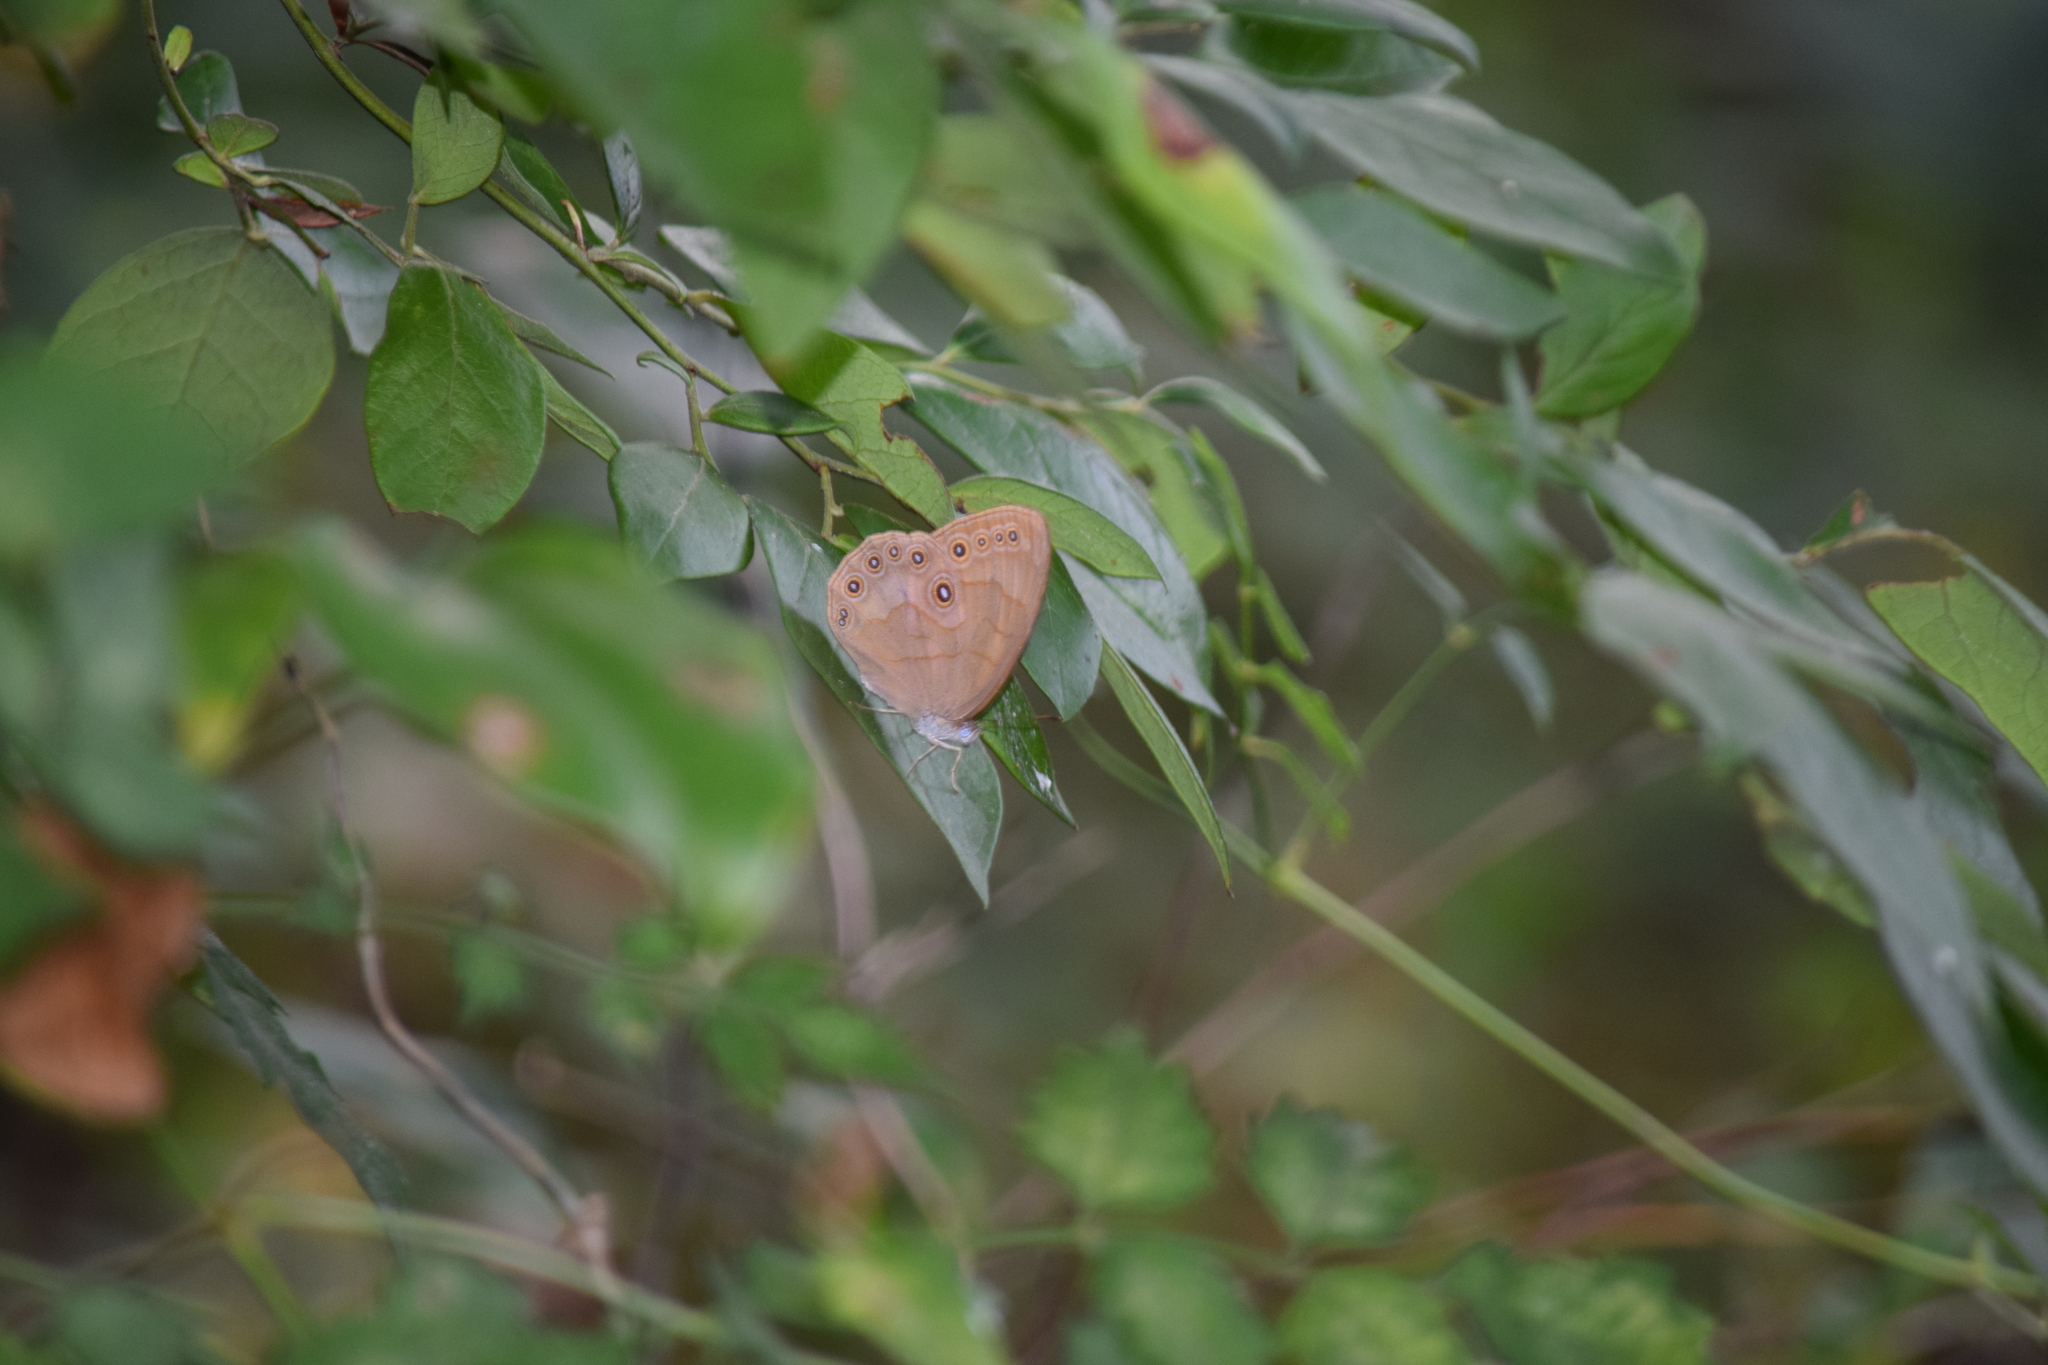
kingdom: Animalia
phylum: Arthropoda
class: Insecta
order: Lepidoptera
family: Nymphalidae
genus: Lethe
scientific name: Lethe eurydice
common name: Eyed brown
